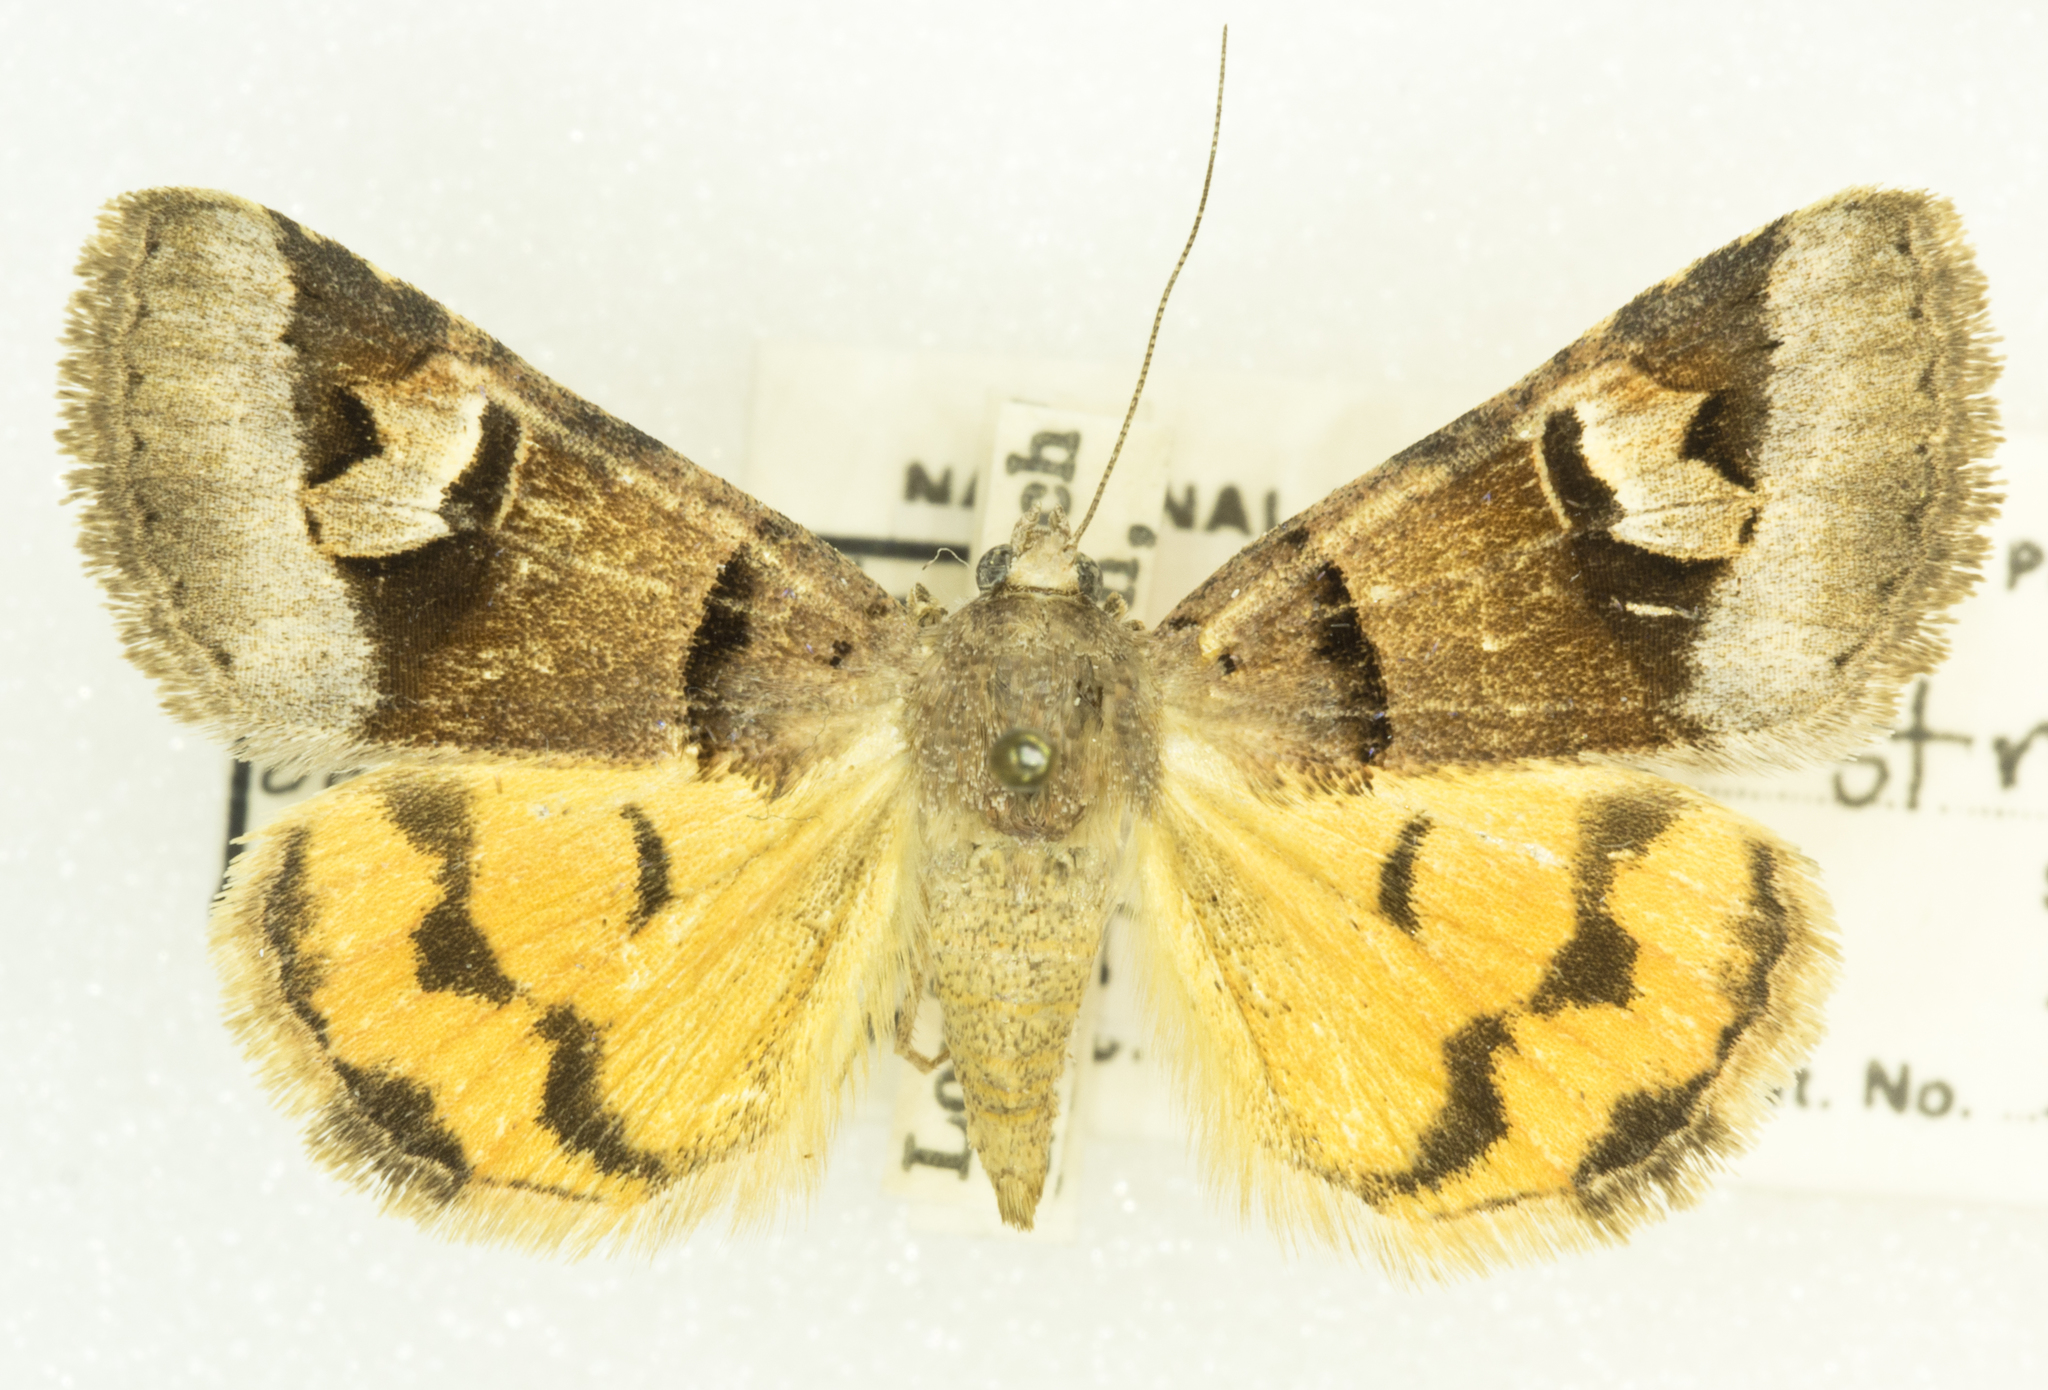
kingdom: Animalia
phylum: Arthropoda
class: Insecta
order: Lepidoptera
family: Erebidae
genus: Drasteria
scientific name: Drasteria perplexa
